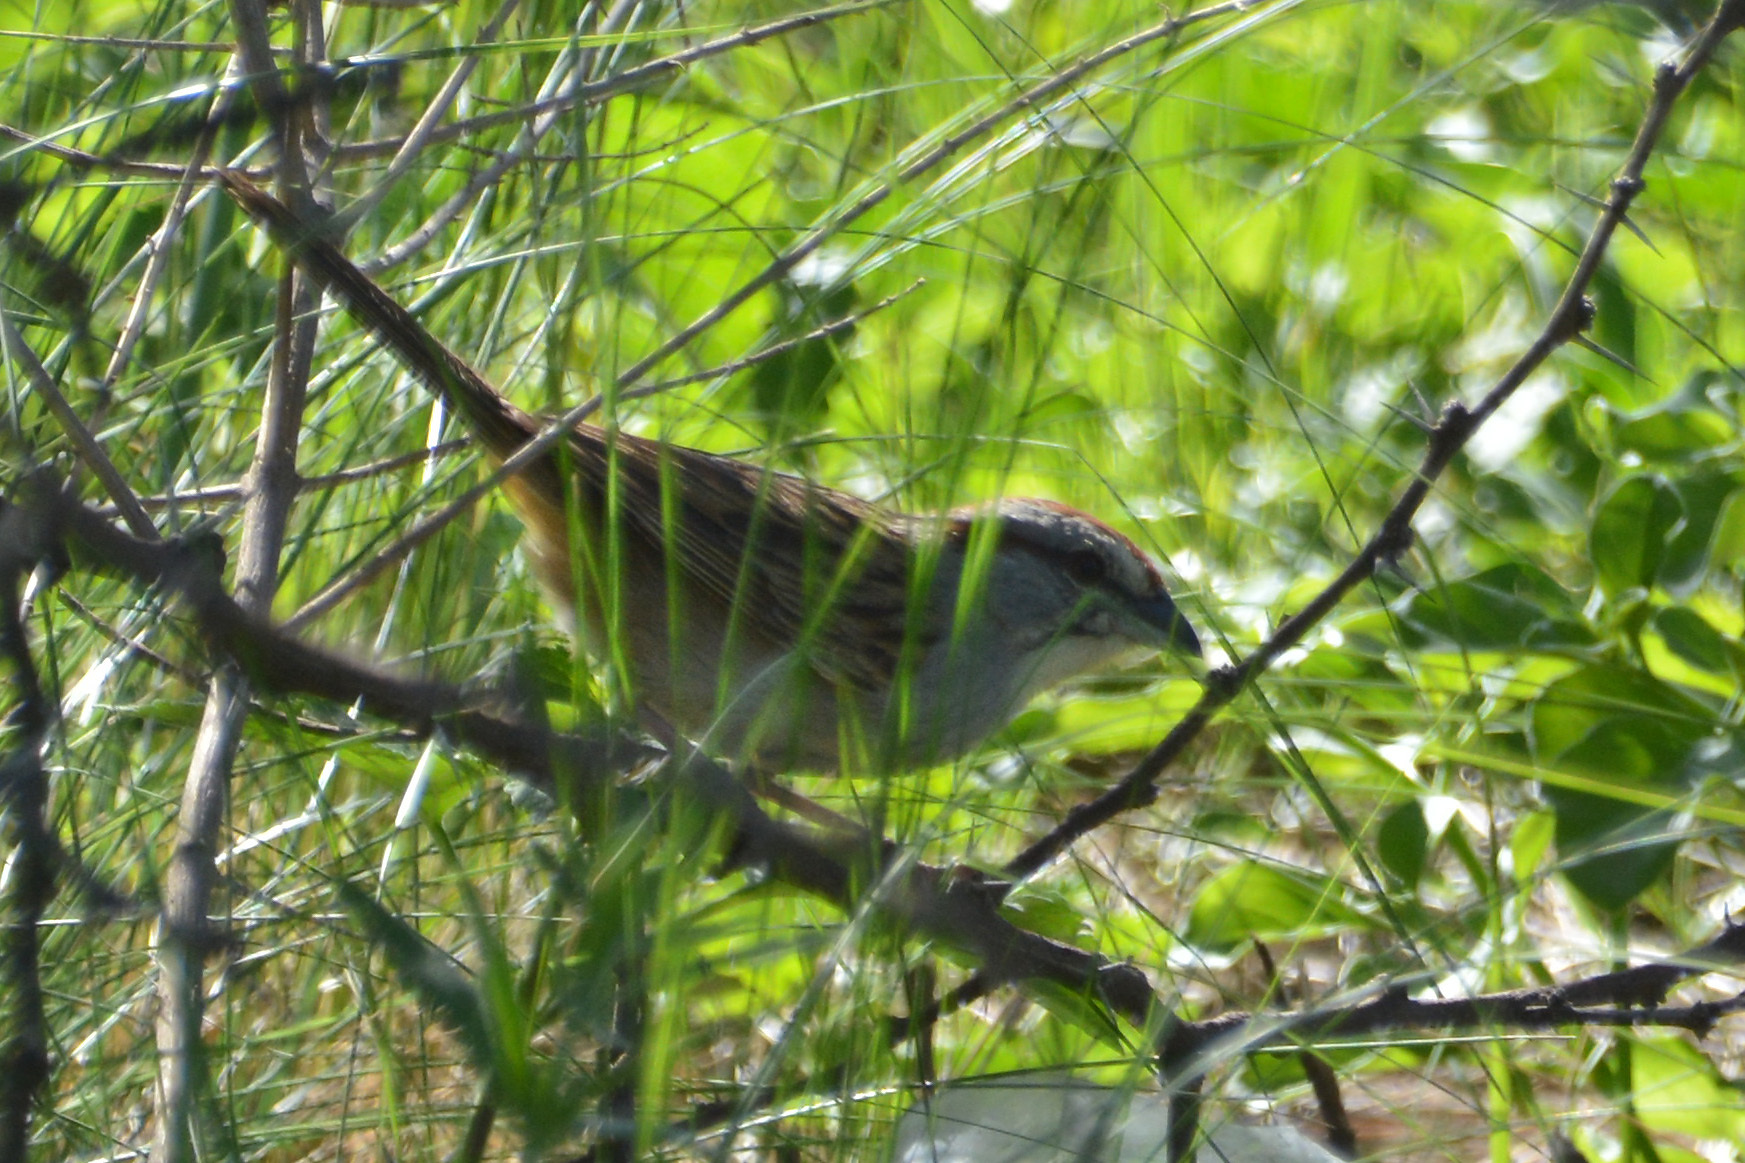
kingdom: Animalia
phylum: Chordata
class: Aves
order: Passeriformes
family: Passerellidae
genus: Rhynchospiza
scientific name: Rhynchospiza strigiceps
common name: Stripe-capped sparrow
